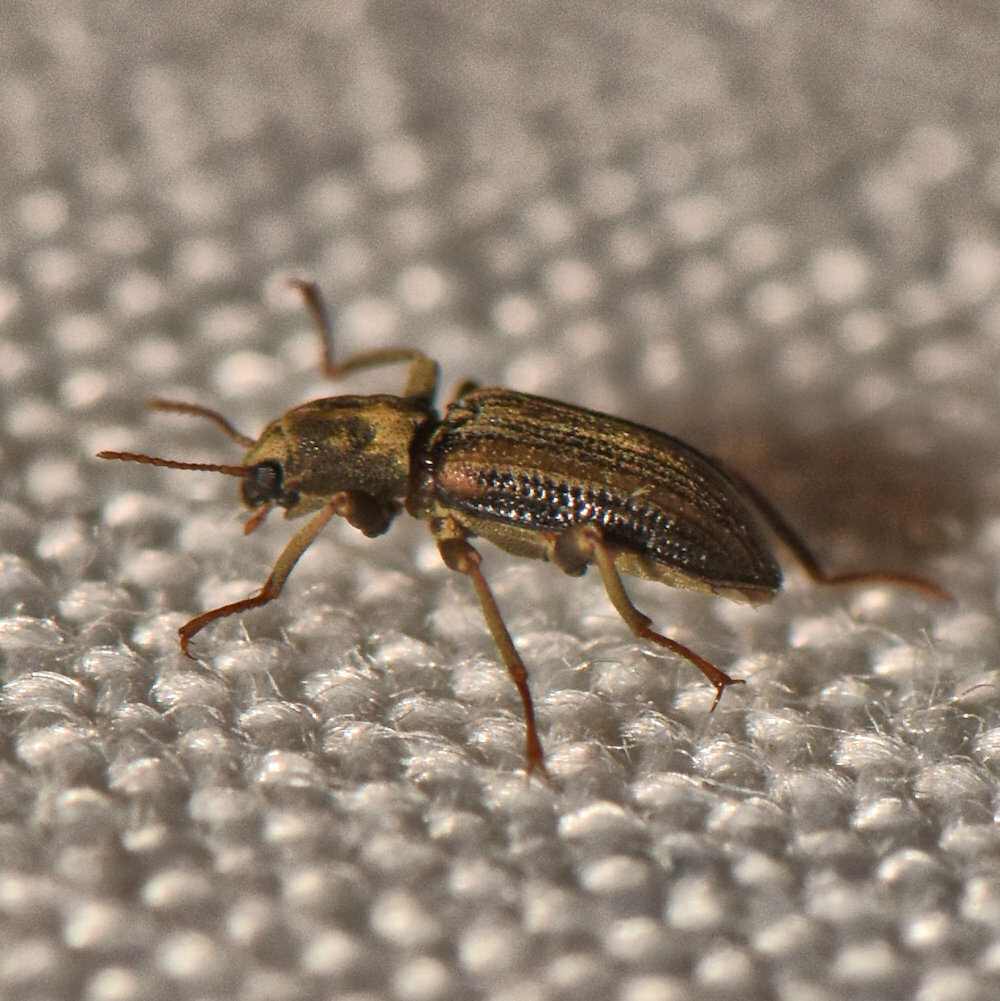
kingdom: Animalia
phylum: Arthropoda
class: Insecta
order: Coleoptera
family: Elmidae
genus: Stenelmis
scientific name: Stenelmis
